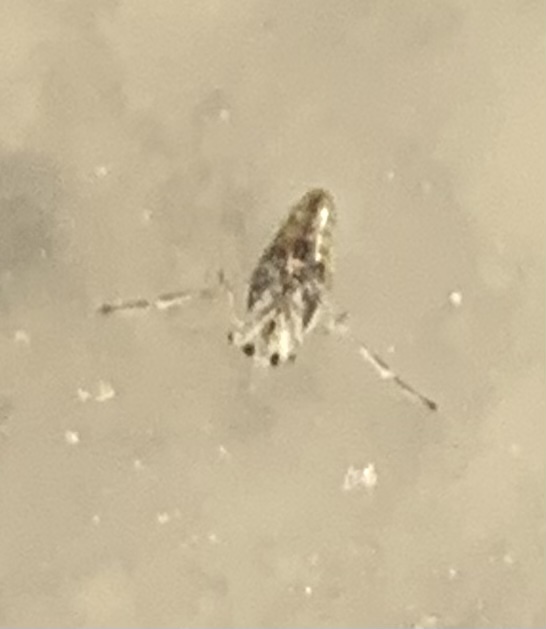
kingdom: Animalia
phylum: Arthropoda
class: Insecta
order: Hemiptera
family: Notonectidae
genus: Notonecta
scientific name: Notonecta
